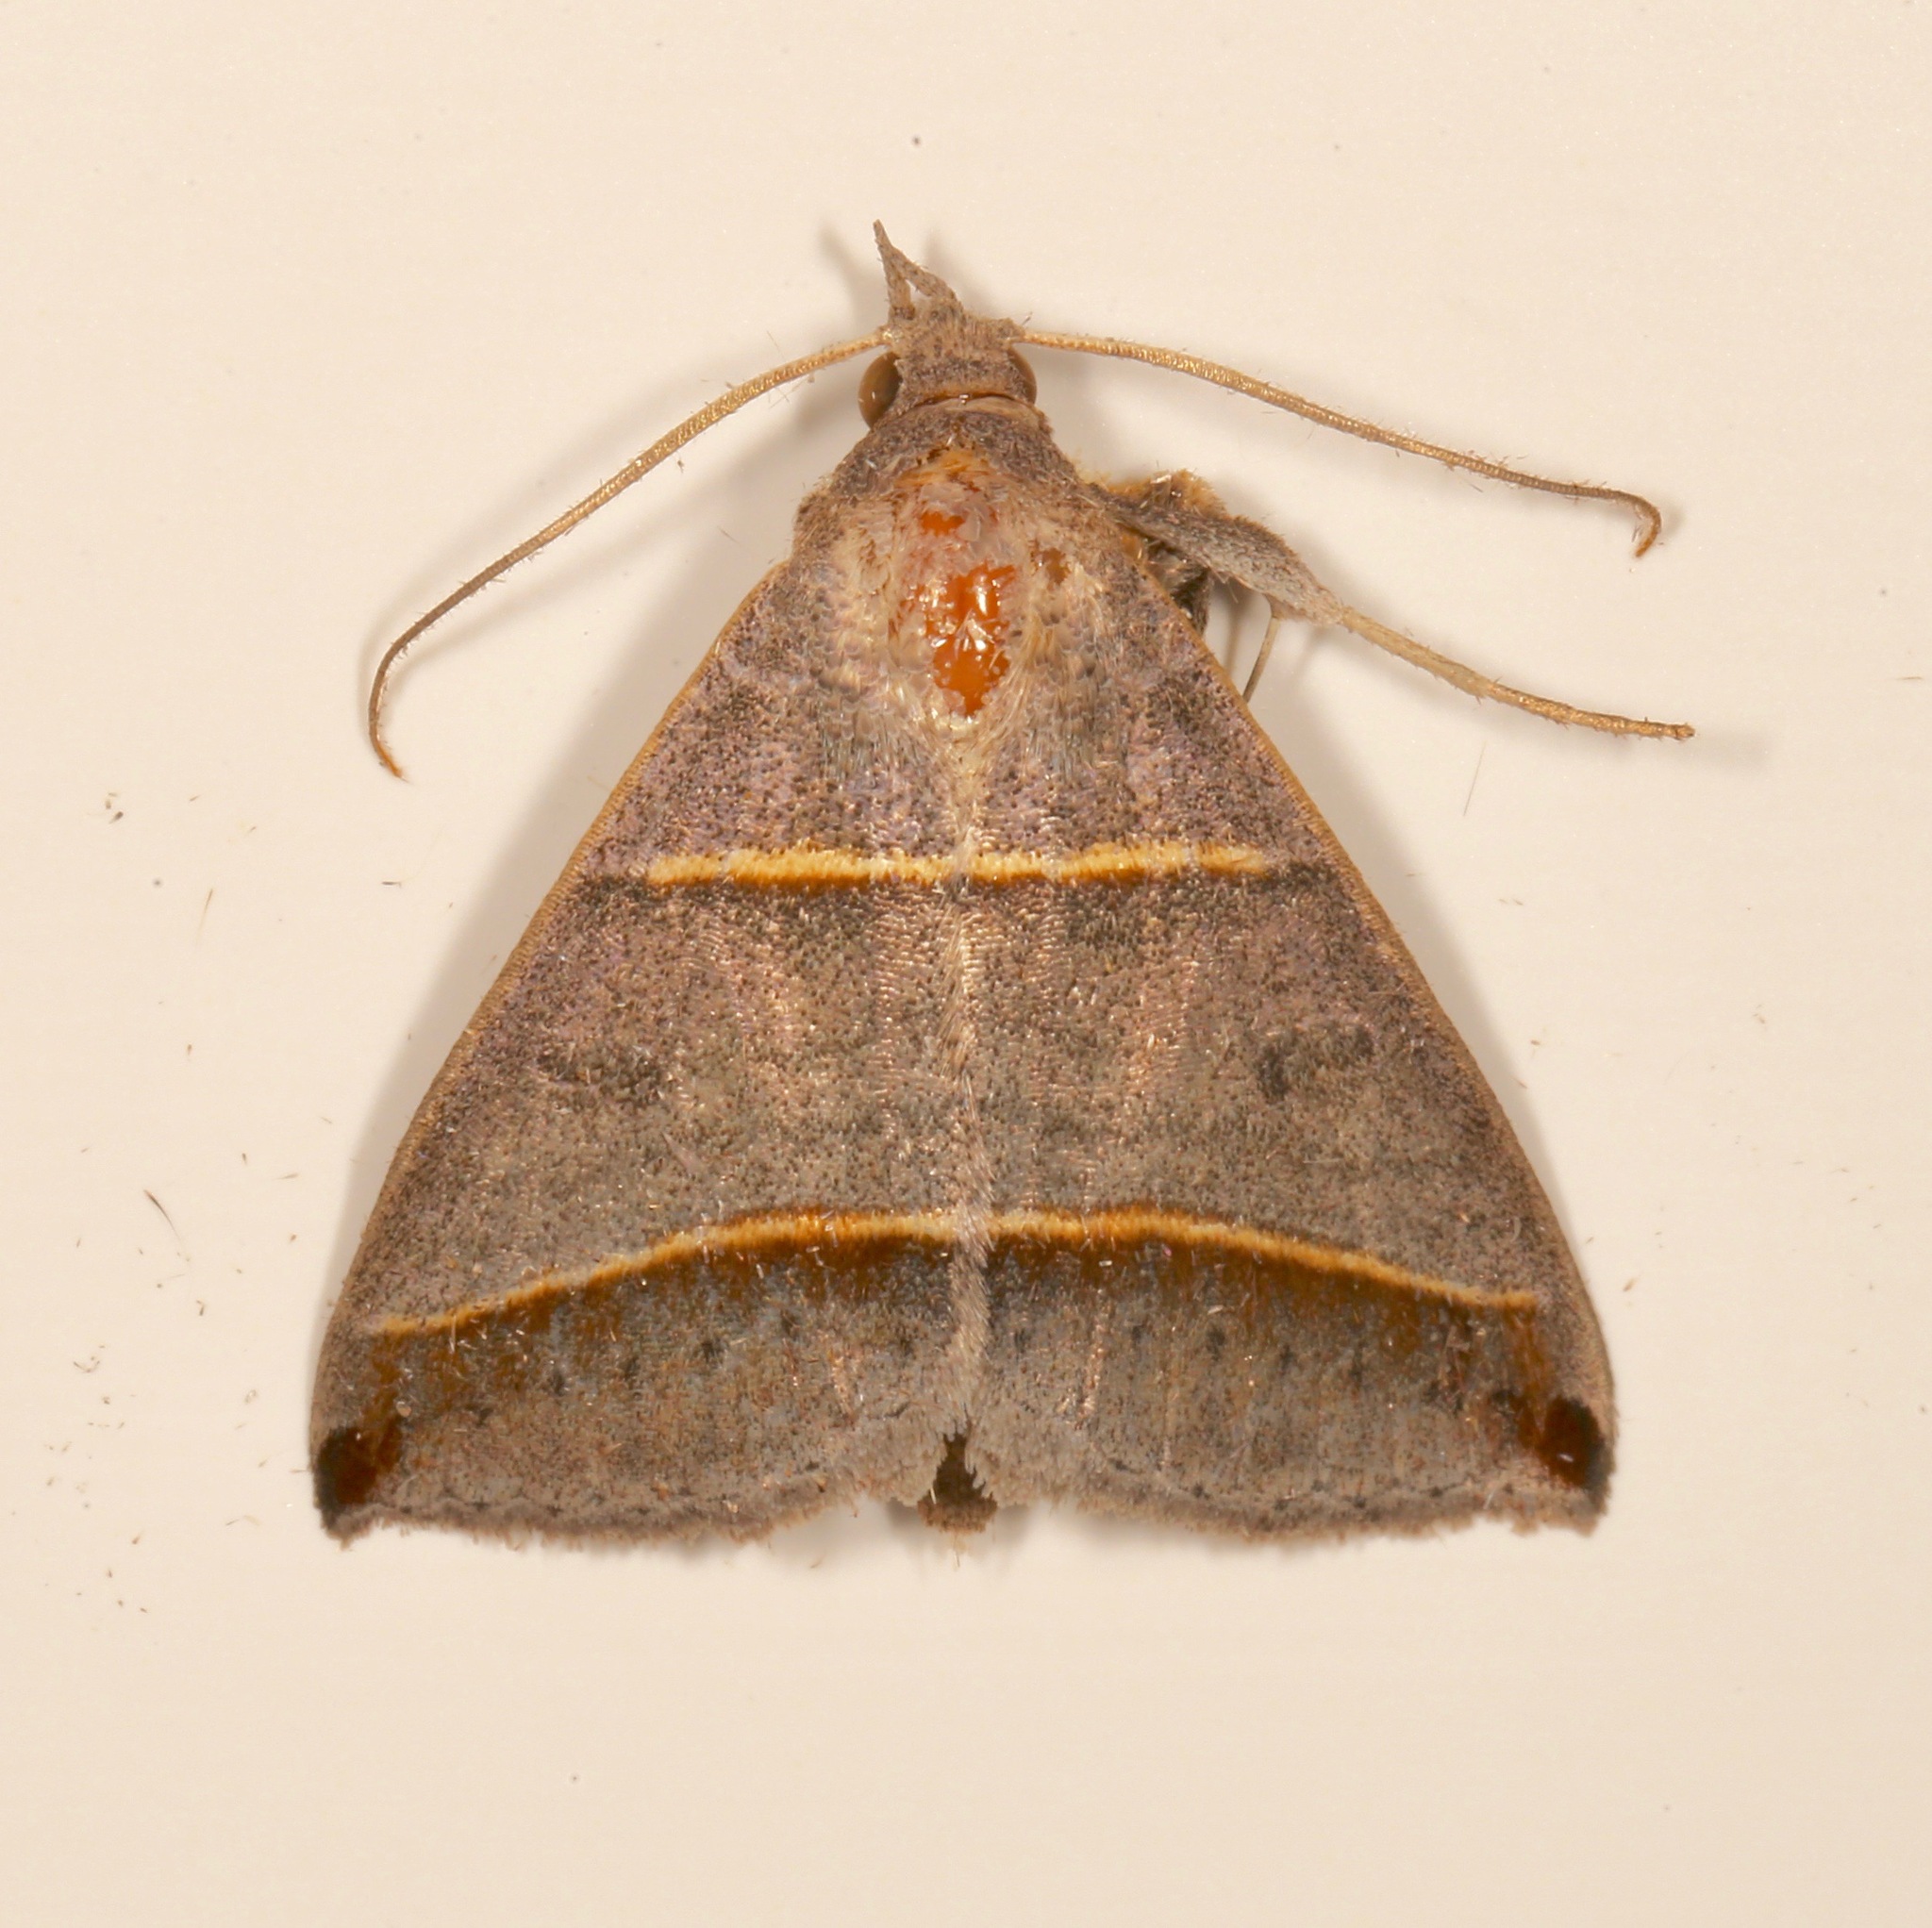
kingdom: Animalia
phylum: Arthropoda
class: Insecta
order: Lepidoptera
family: Erebidae
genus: Ptichodis
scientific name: Ptichodis vinculum
